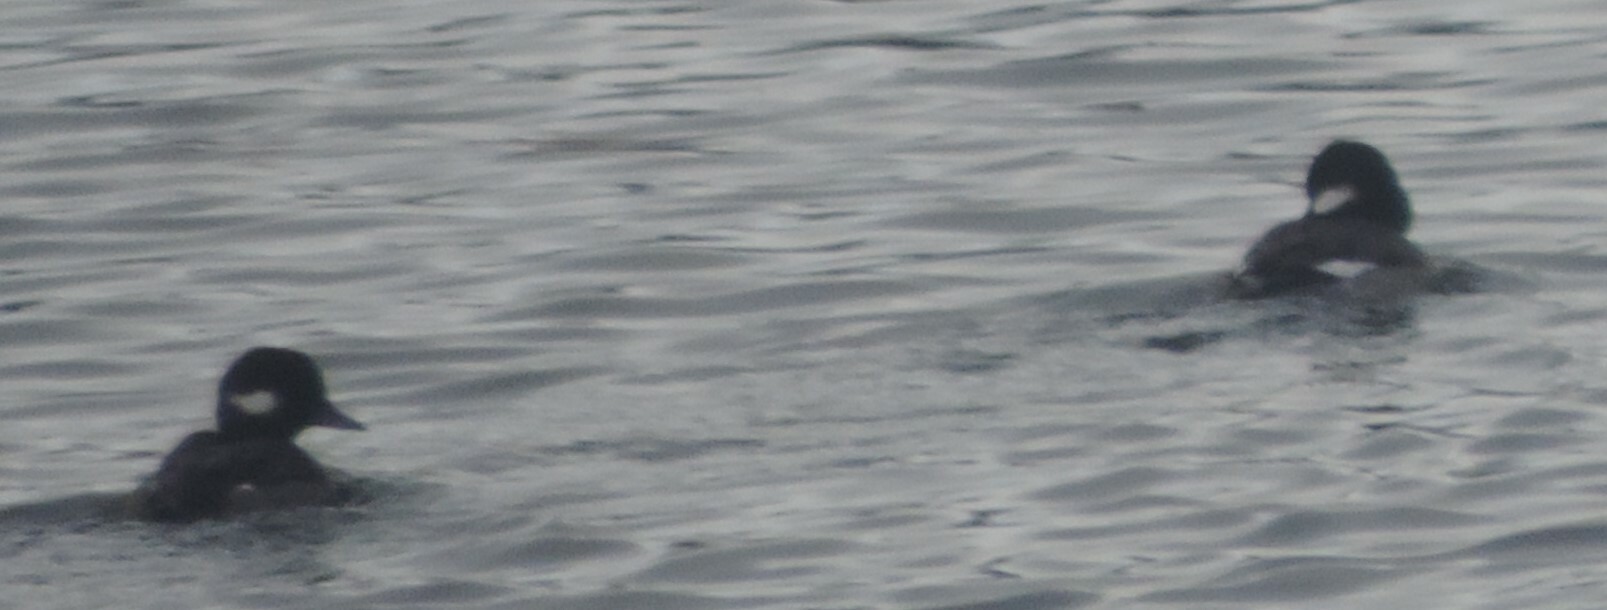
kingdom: Animalia
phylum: Chordata
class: Aves
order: Anseriformes
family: Anatidae
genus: Bucephala
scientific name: Bucephala albeola
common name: Bufflehead
